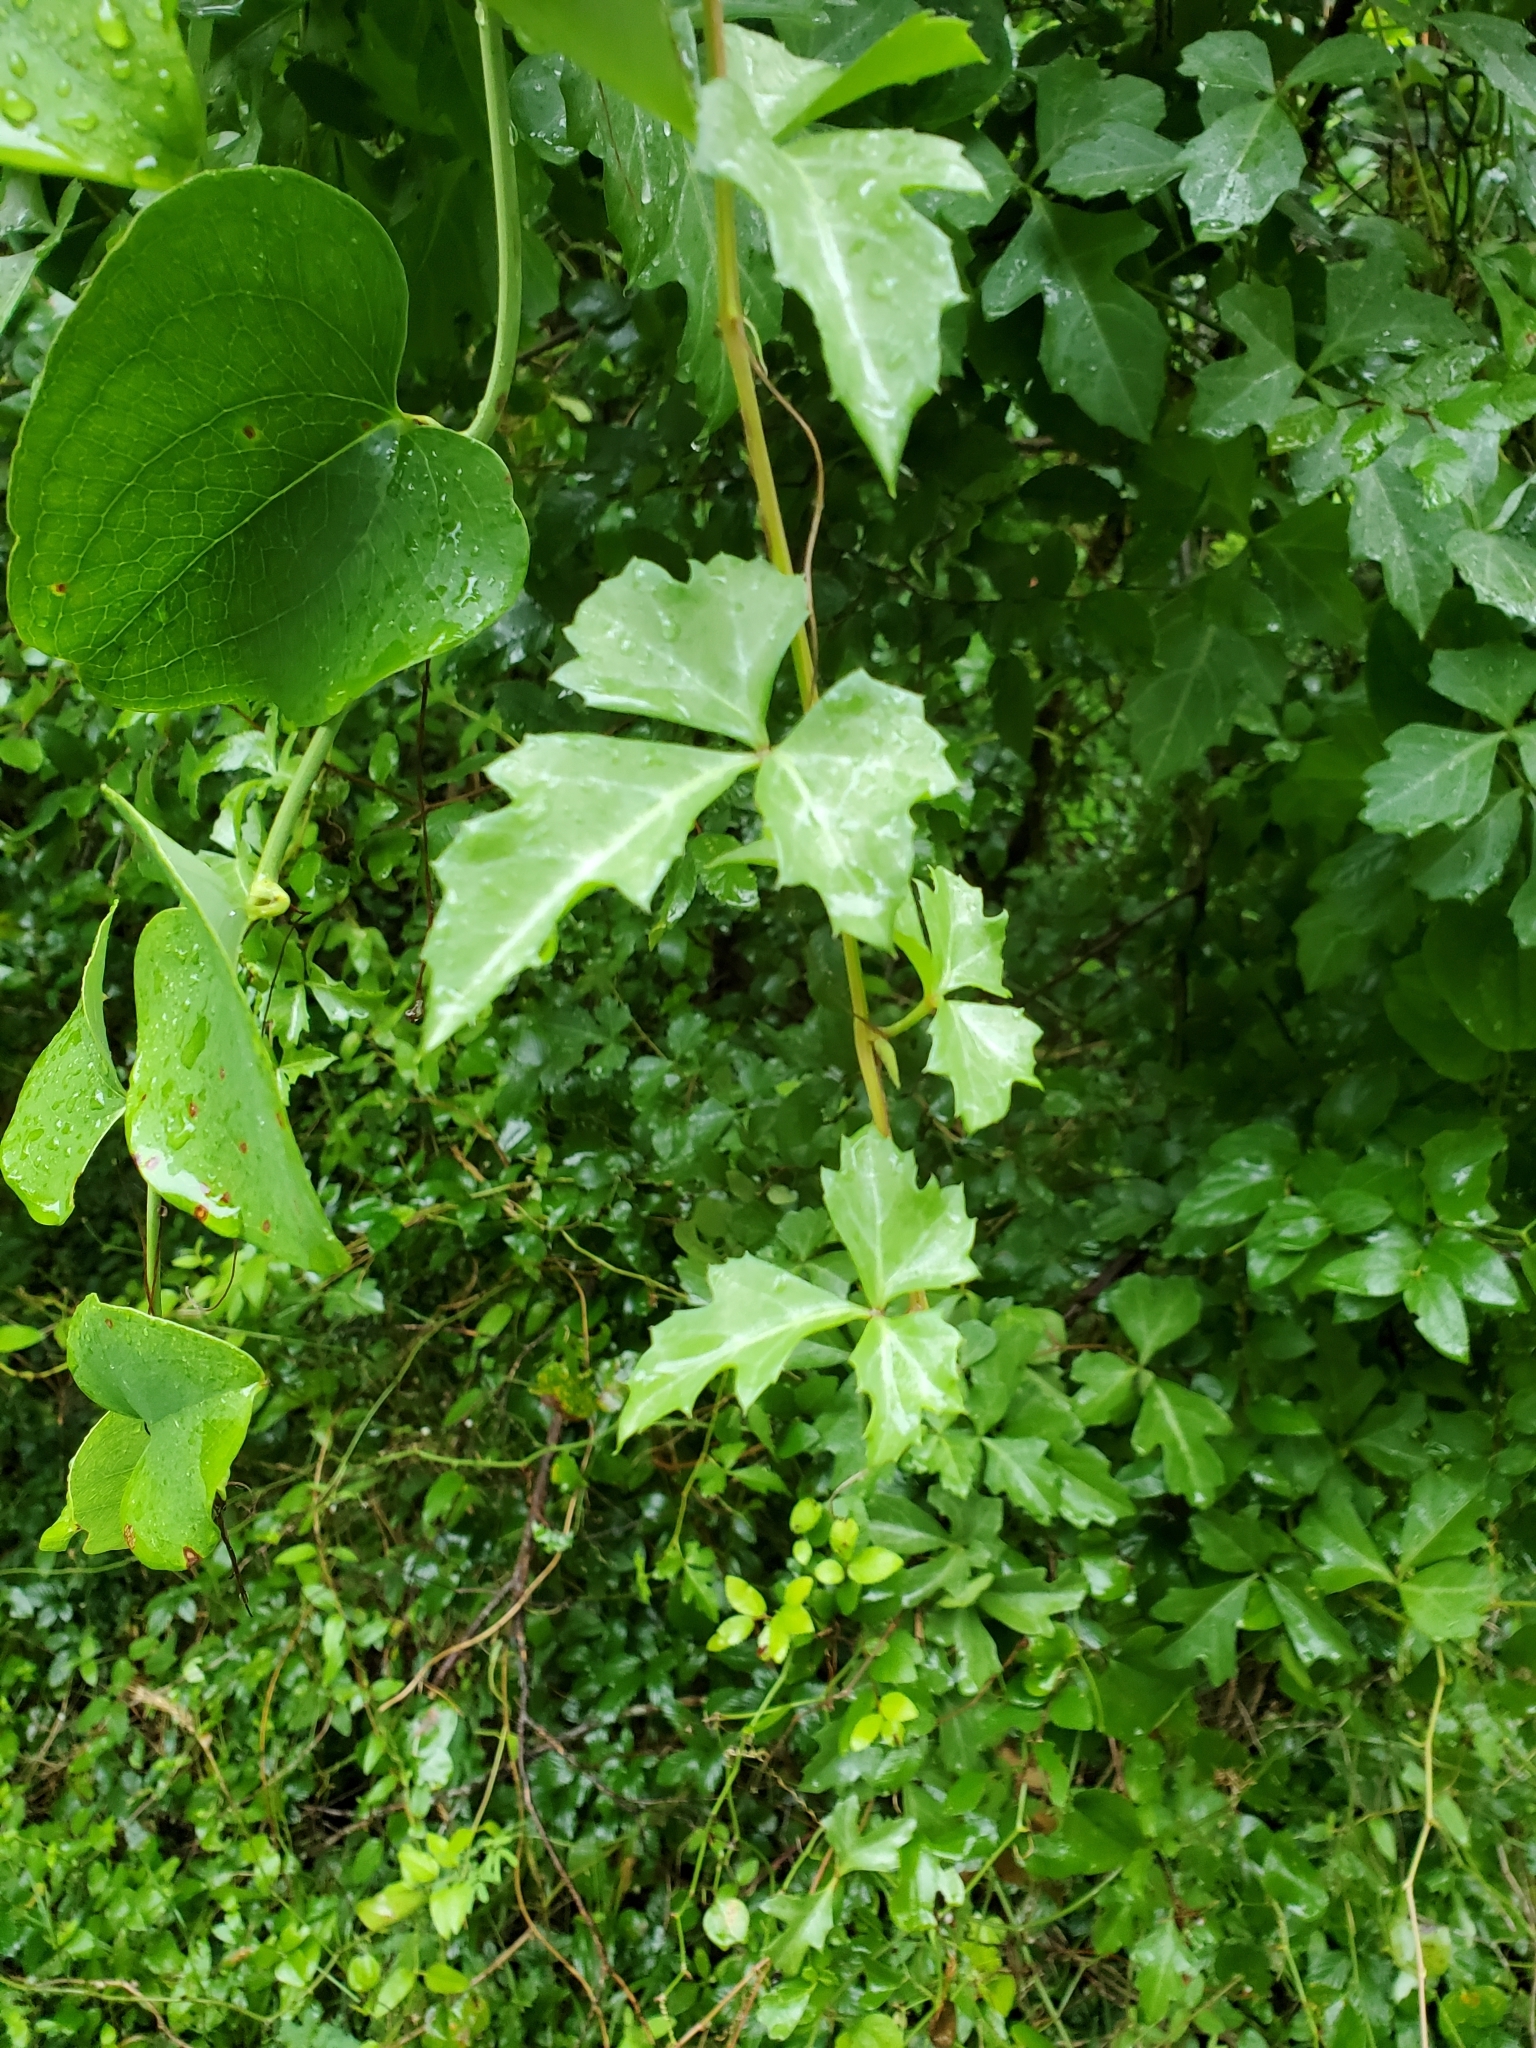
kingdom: Plantae
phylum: Tracheophyta
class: Magnoliopsida
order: Vitales
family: Vitaceae
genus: Cissus
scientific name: Cissus trifoliata
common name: Vine-sorrel
